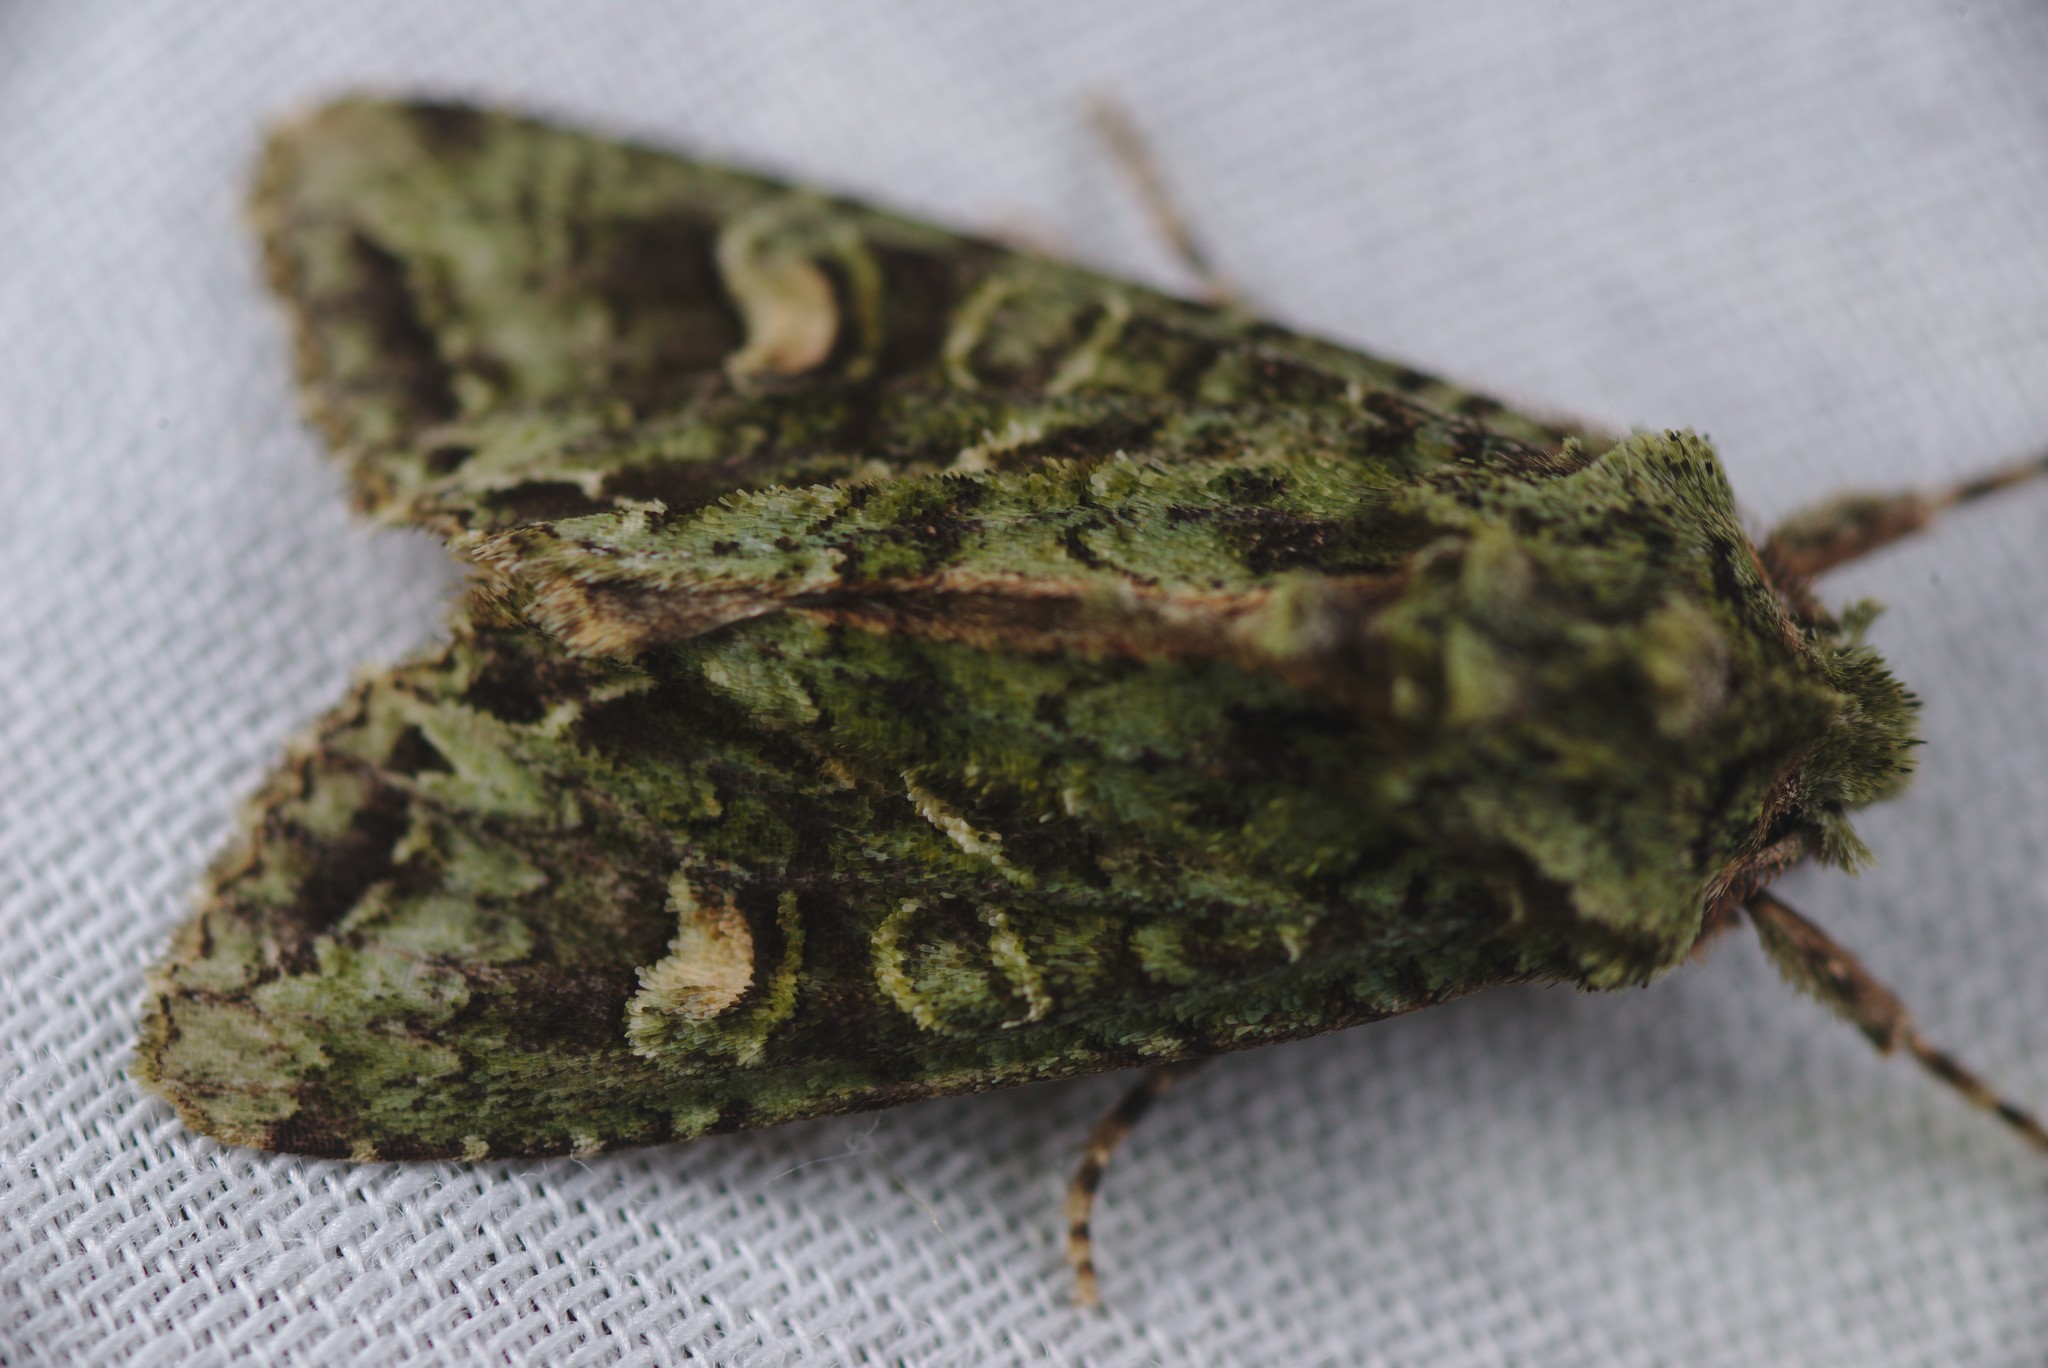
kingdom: Animalia
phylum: Arthropoda
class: Insecta
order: Lepidoptera
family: Noctuidae
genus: Ichneutica
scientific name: Ichneutica
